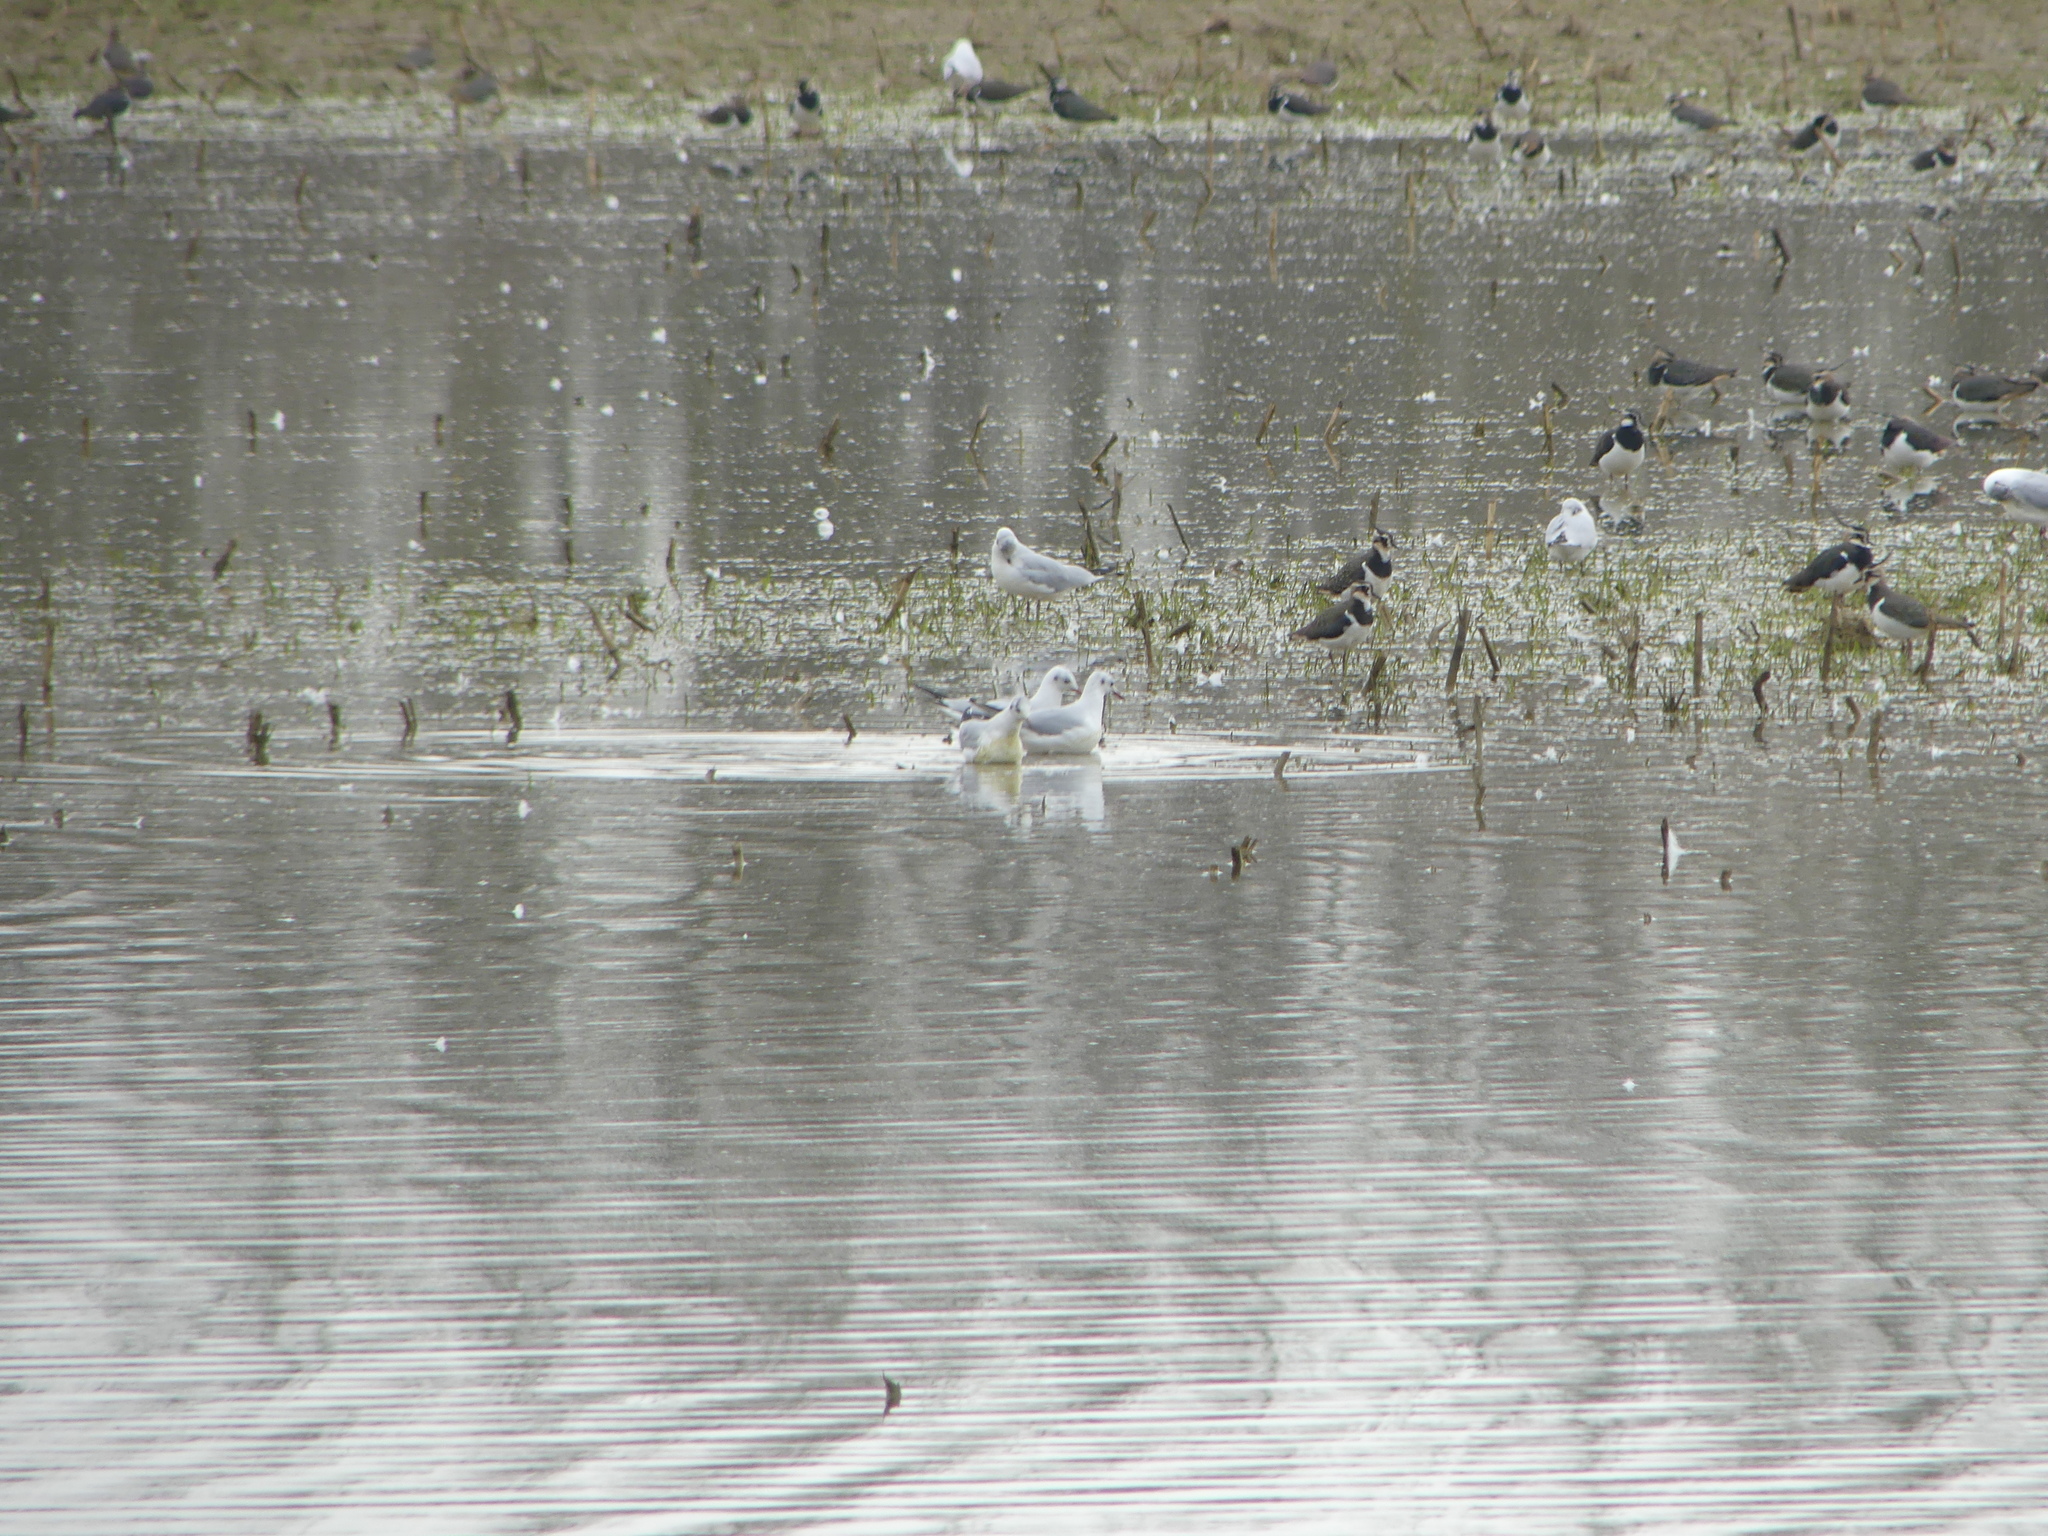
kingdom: Animalia
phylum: Chordata
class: Aves
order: Charadriiformes
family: Laridae
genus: Chroicocephalus
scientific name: Chroicocephalus ridibundus
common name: Black-headed gull
